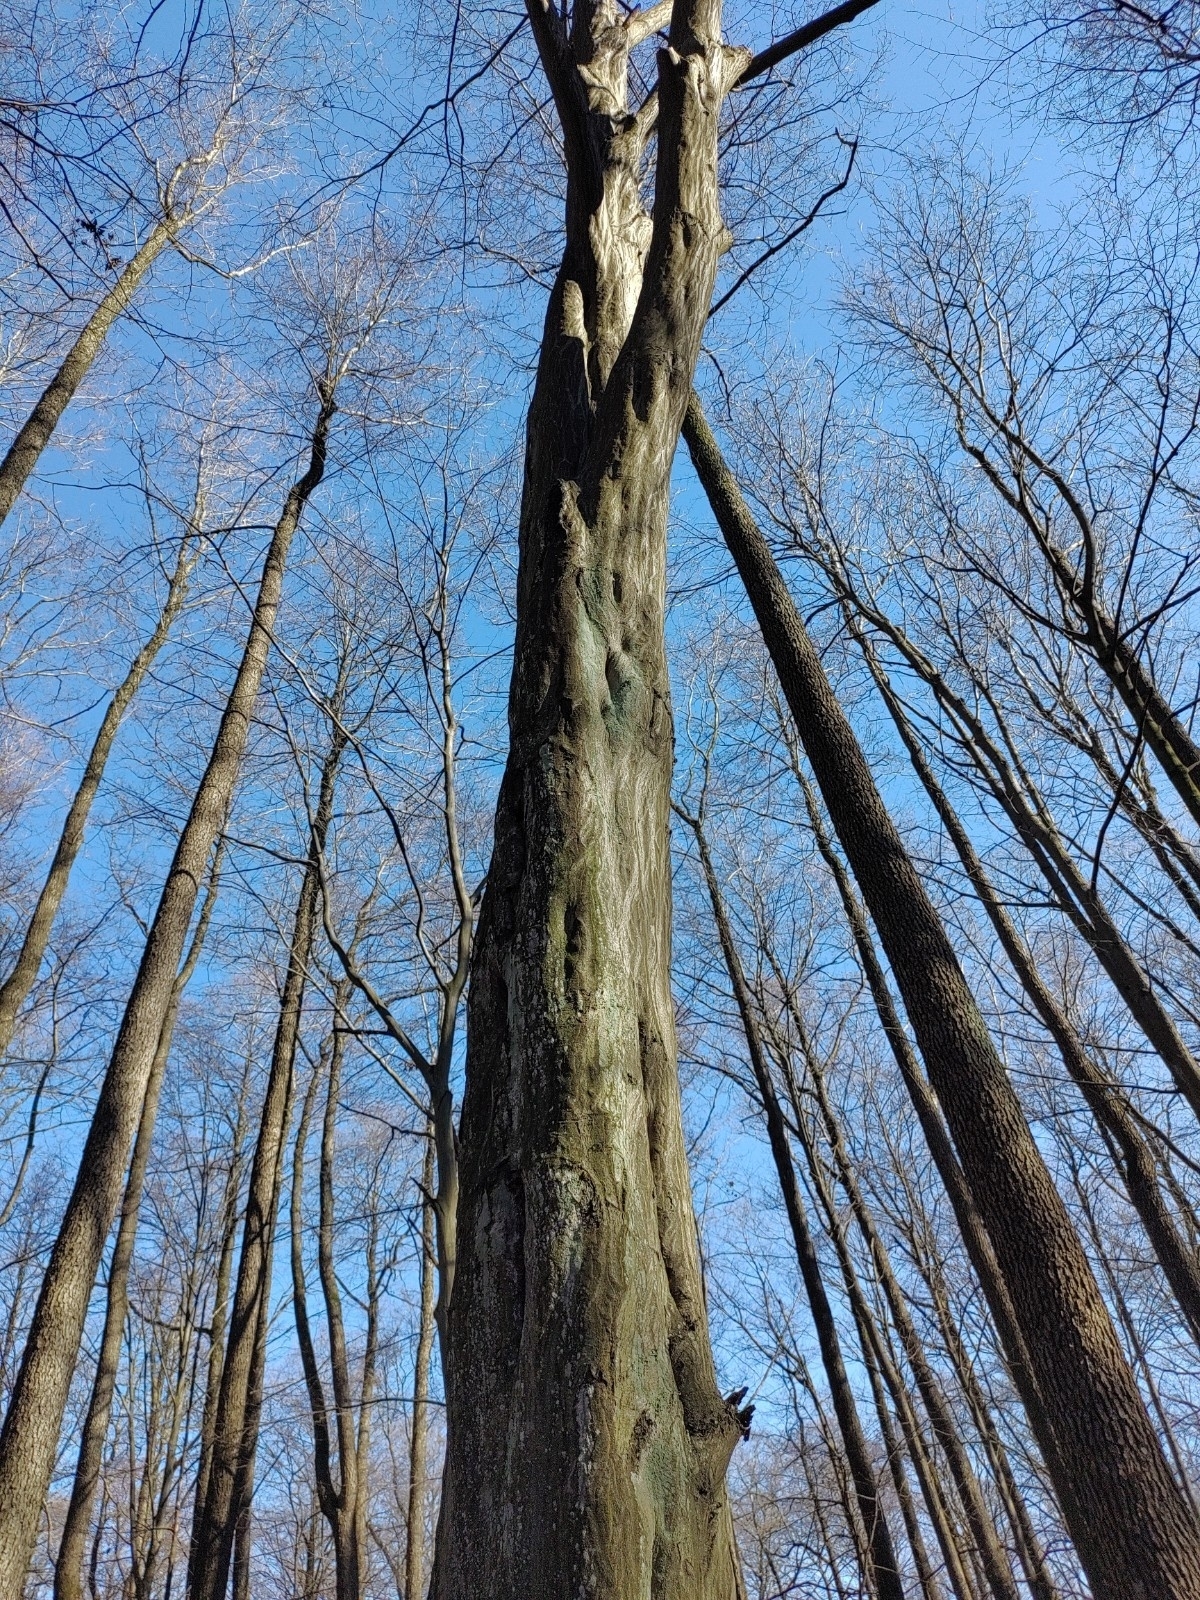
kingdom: Plantae
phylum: Tracheophyta
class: Magnoliopsida
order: Fagales
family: Betulaceae
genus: Carpinus
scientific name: Carpinus betulus
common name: Hornbeam
